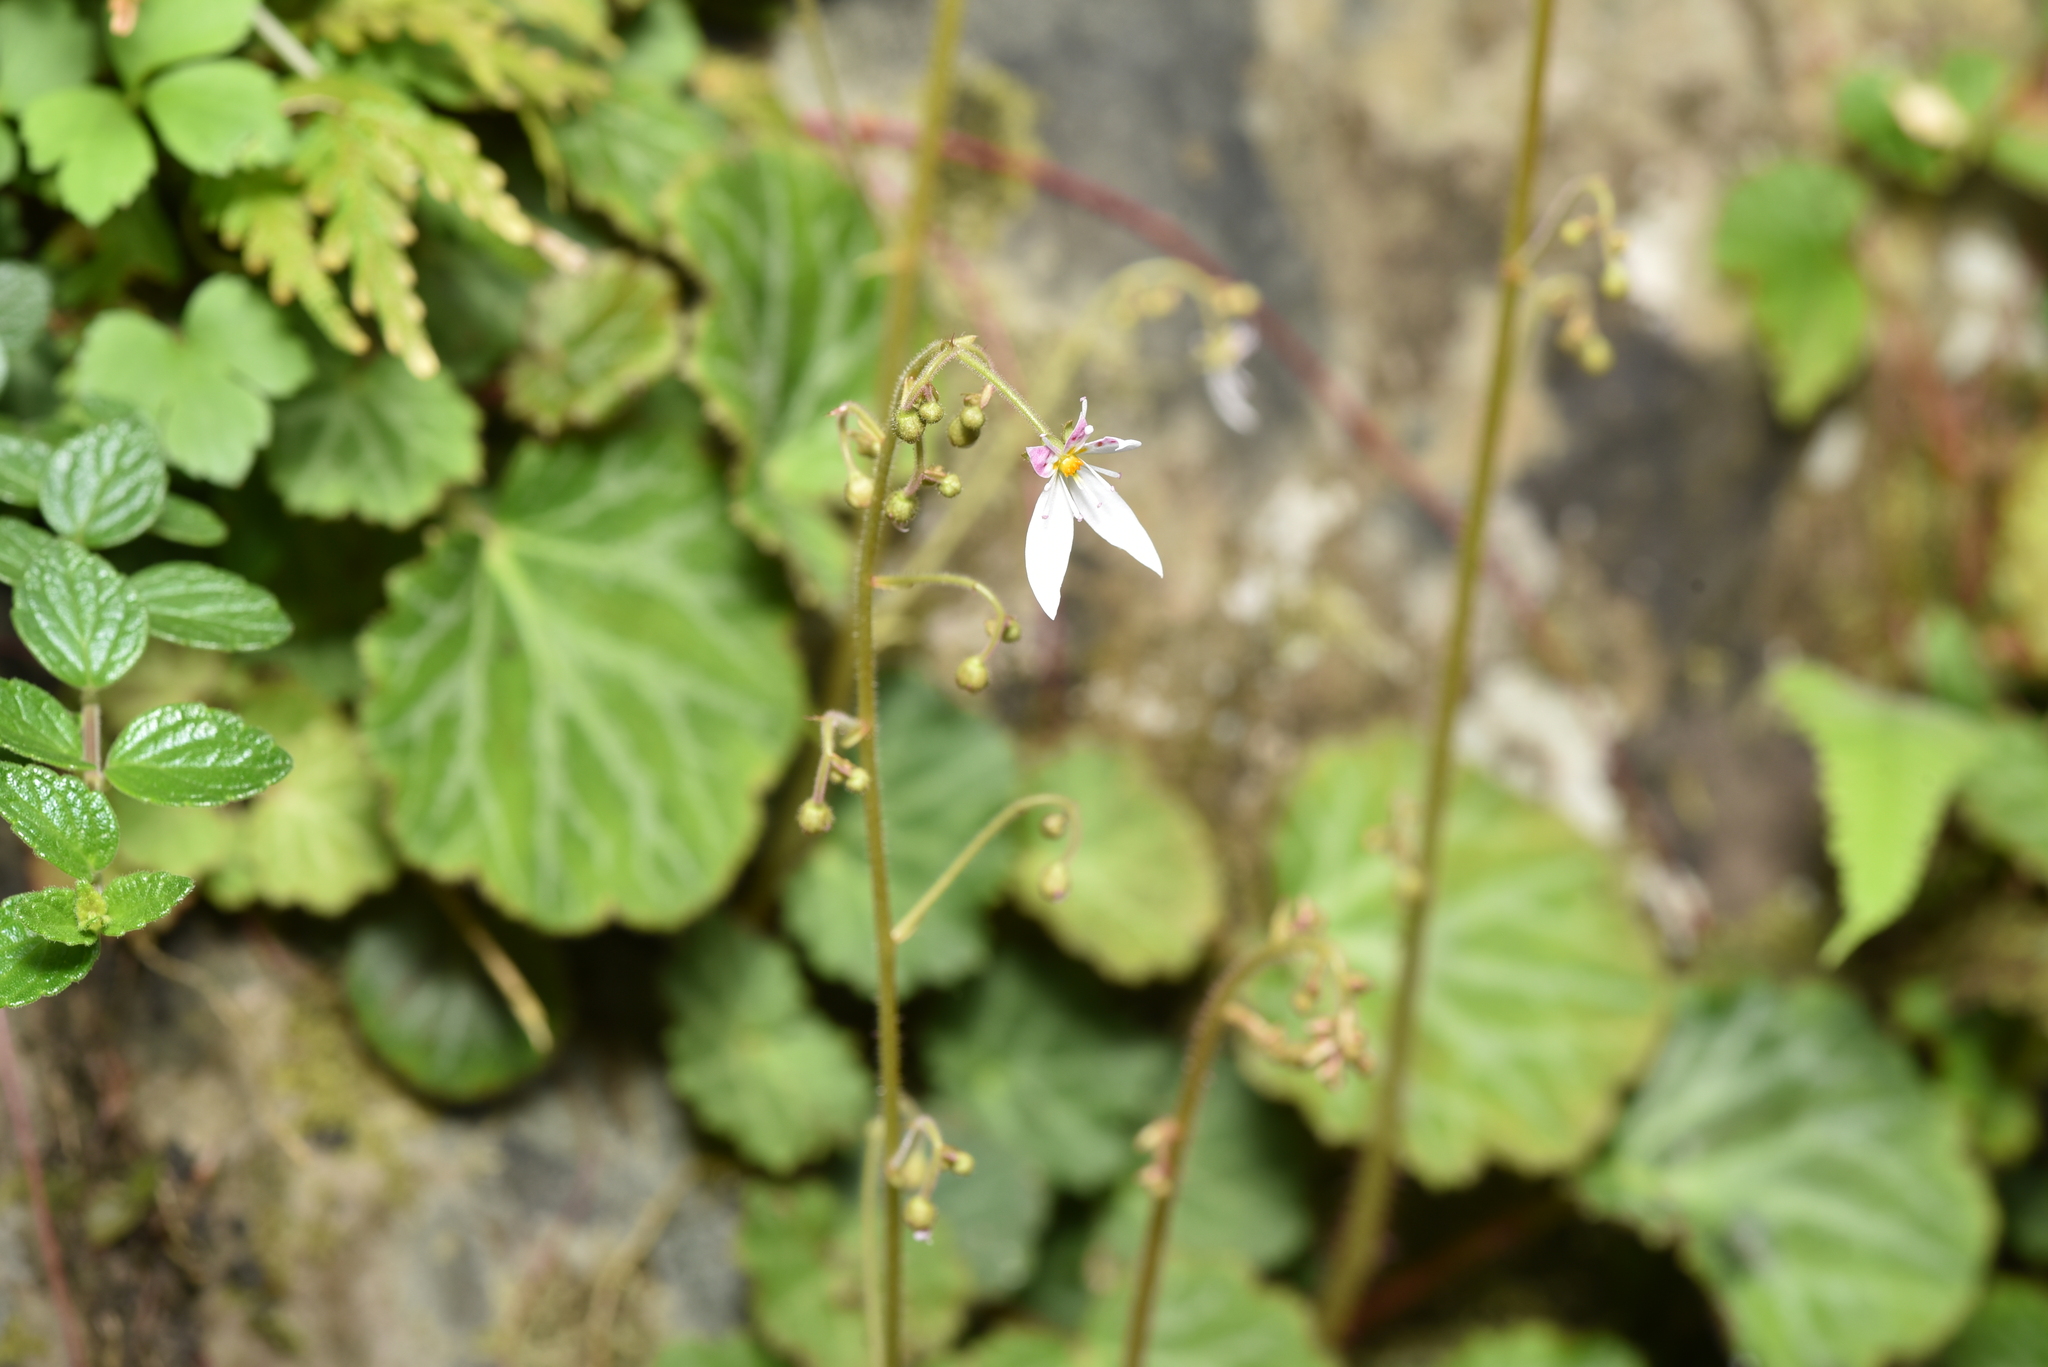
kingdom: Plantae
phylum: Tracheophyta
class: Magnoliopsida
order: Saxifragales
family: Saxifragaceae
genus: Saxifraga
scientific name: Saxifraga stolonifera
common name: Creeping saxifrage
